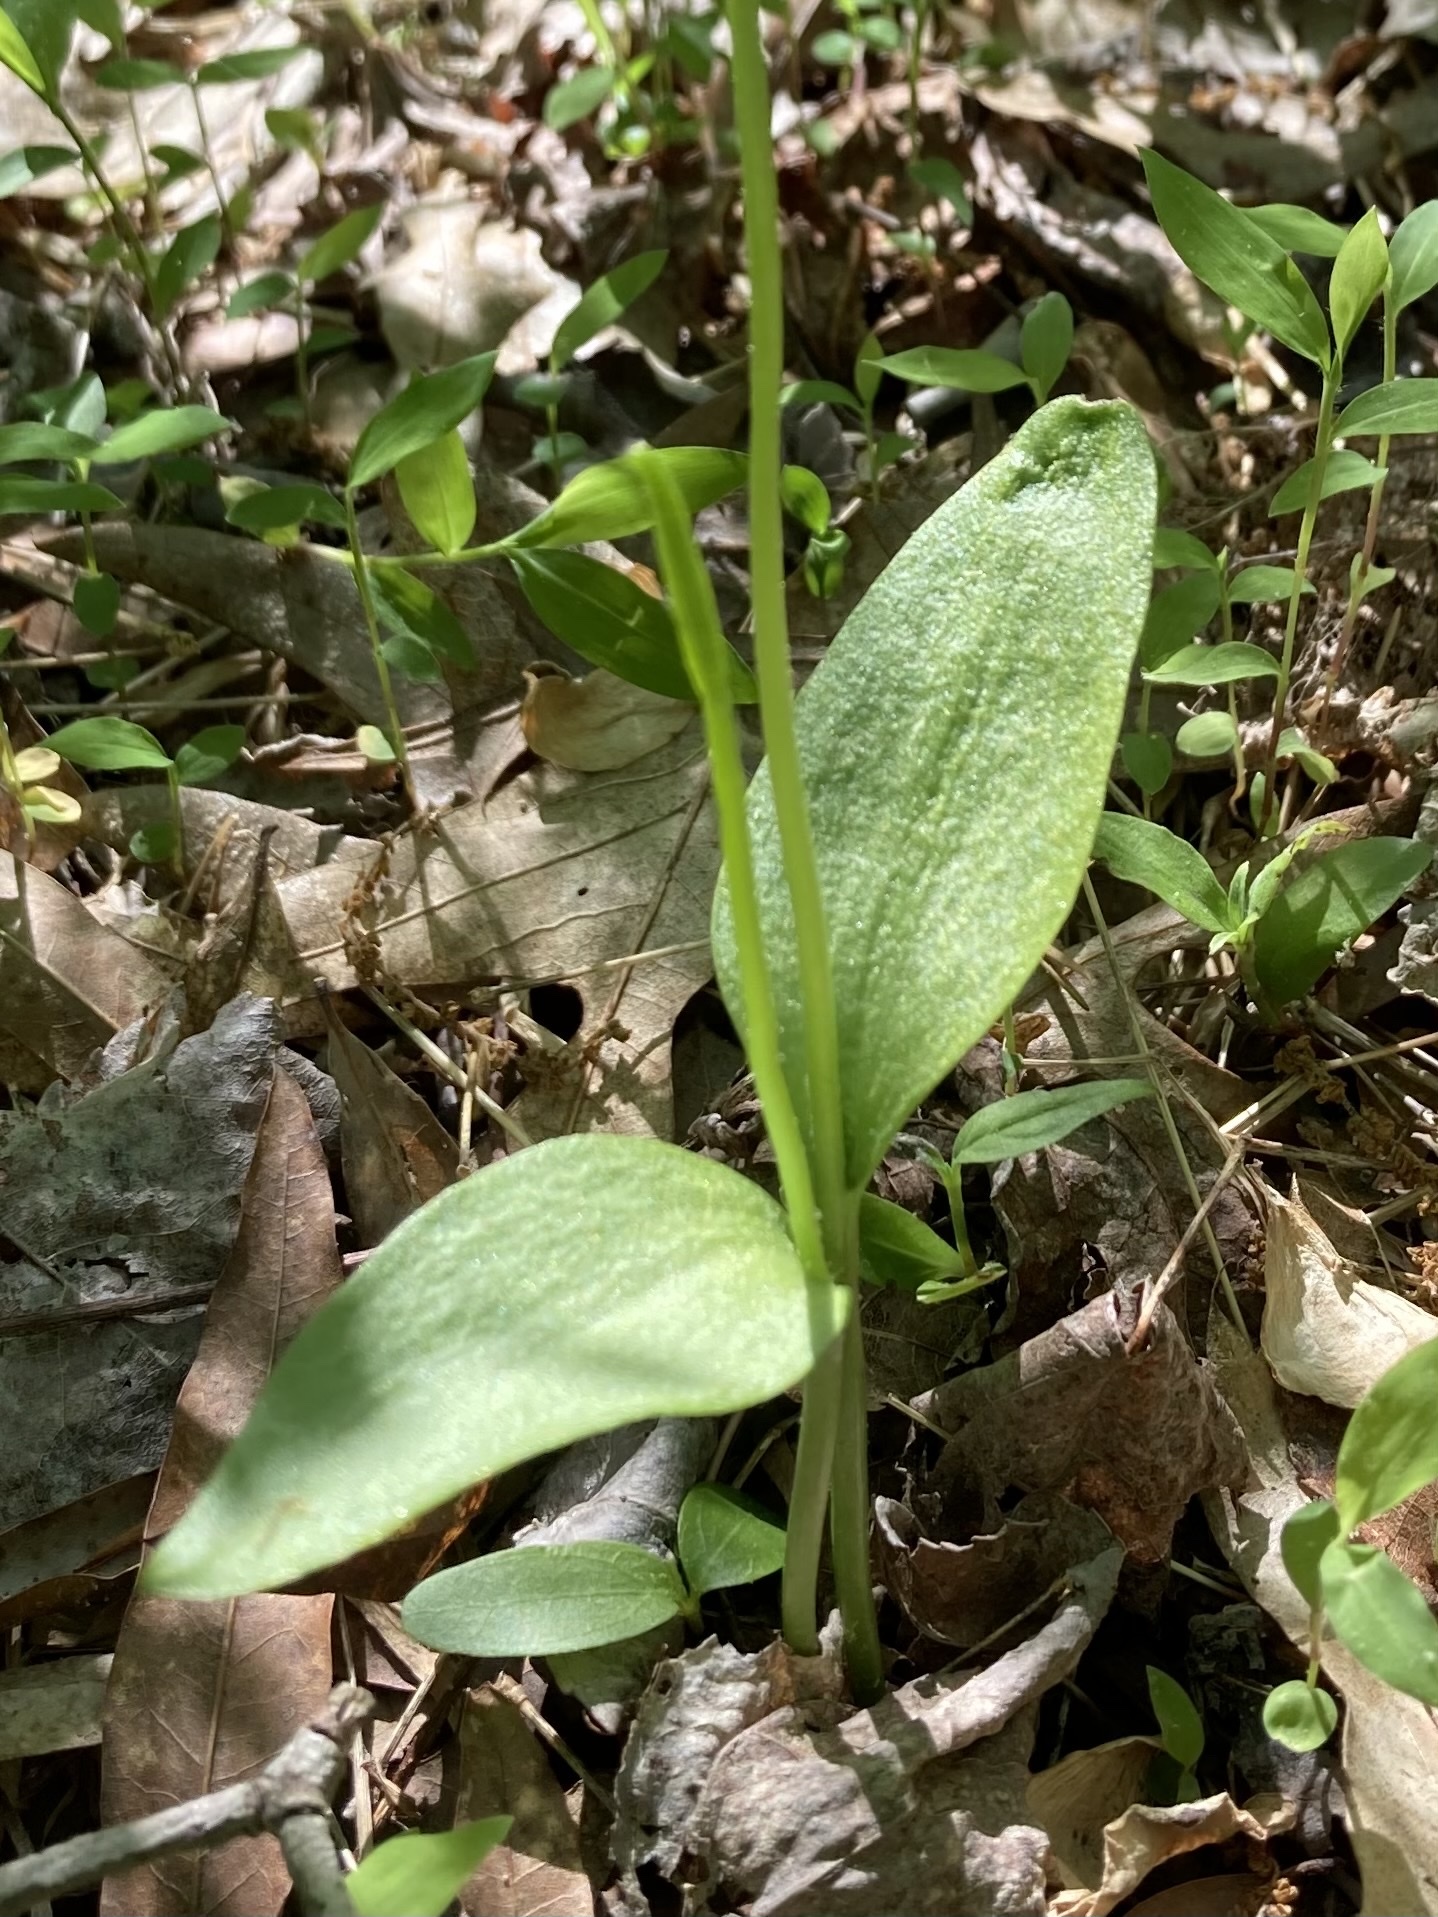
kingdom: Plantae
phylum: Tracheophyta
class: Polypodiopsida
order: Ophioglossales
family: Ophioglossaceae
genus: Ophioglossum
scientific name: Ophioglossum pusillum
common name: Northern adder's-tongue
